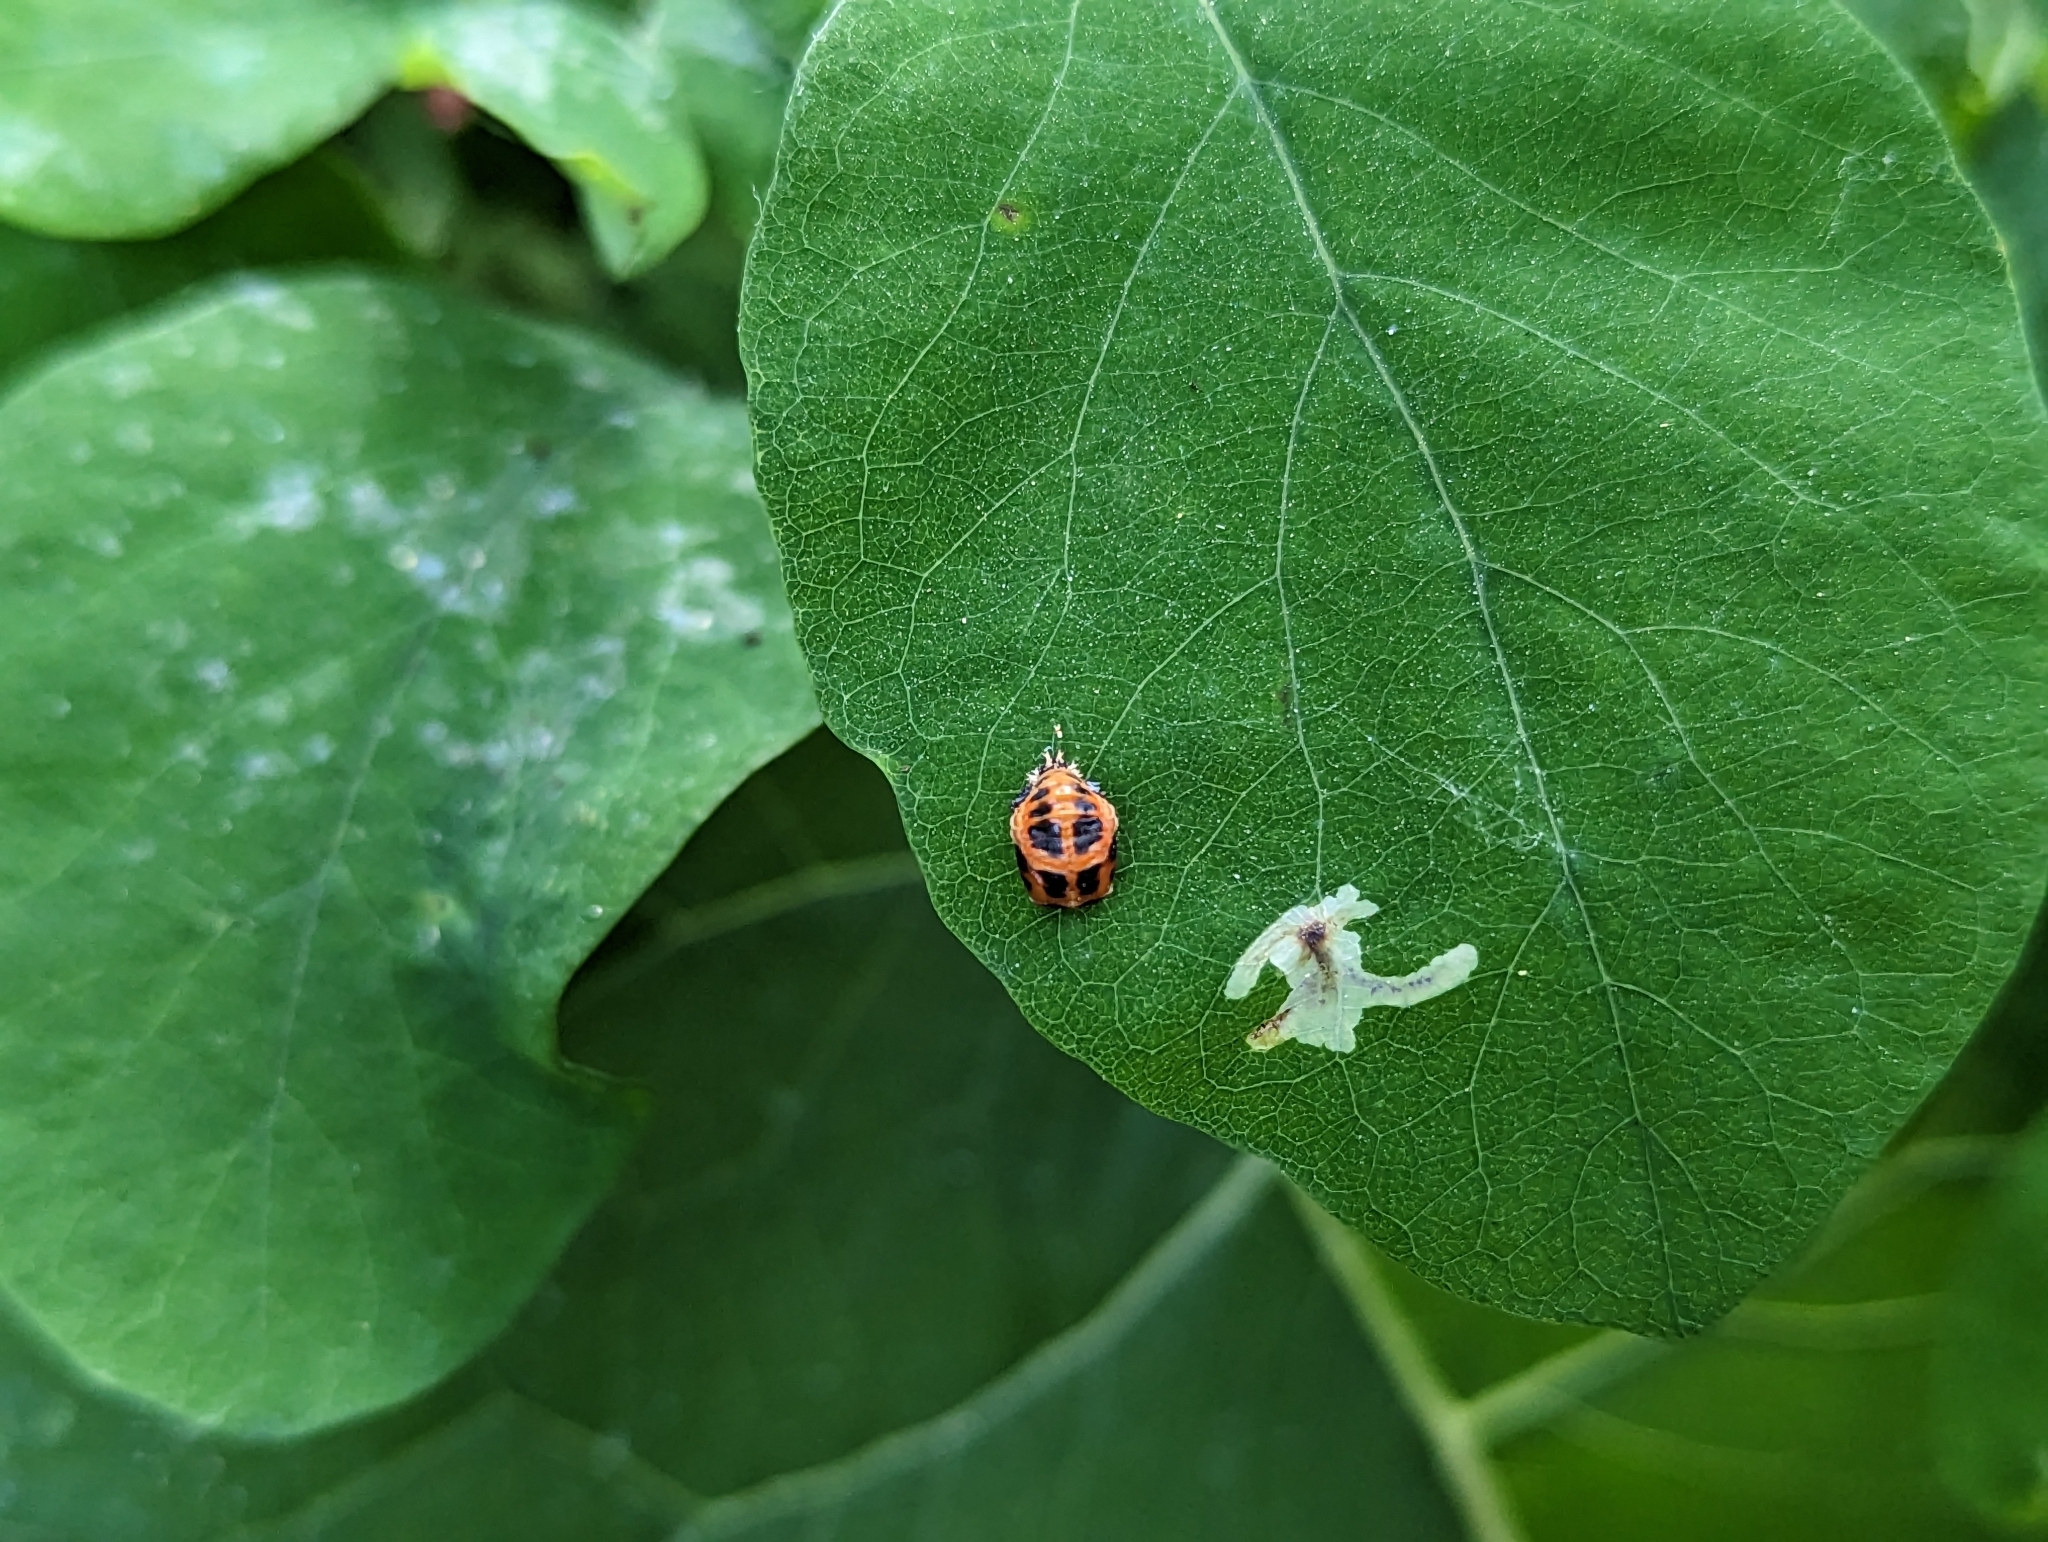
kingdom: Animalia
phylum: Arthropoda
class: Insecta
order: Coleoptera
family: Coccinellidae
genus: Harmonia
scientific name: Harmonia axyridis
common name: Harlequin ladybird
